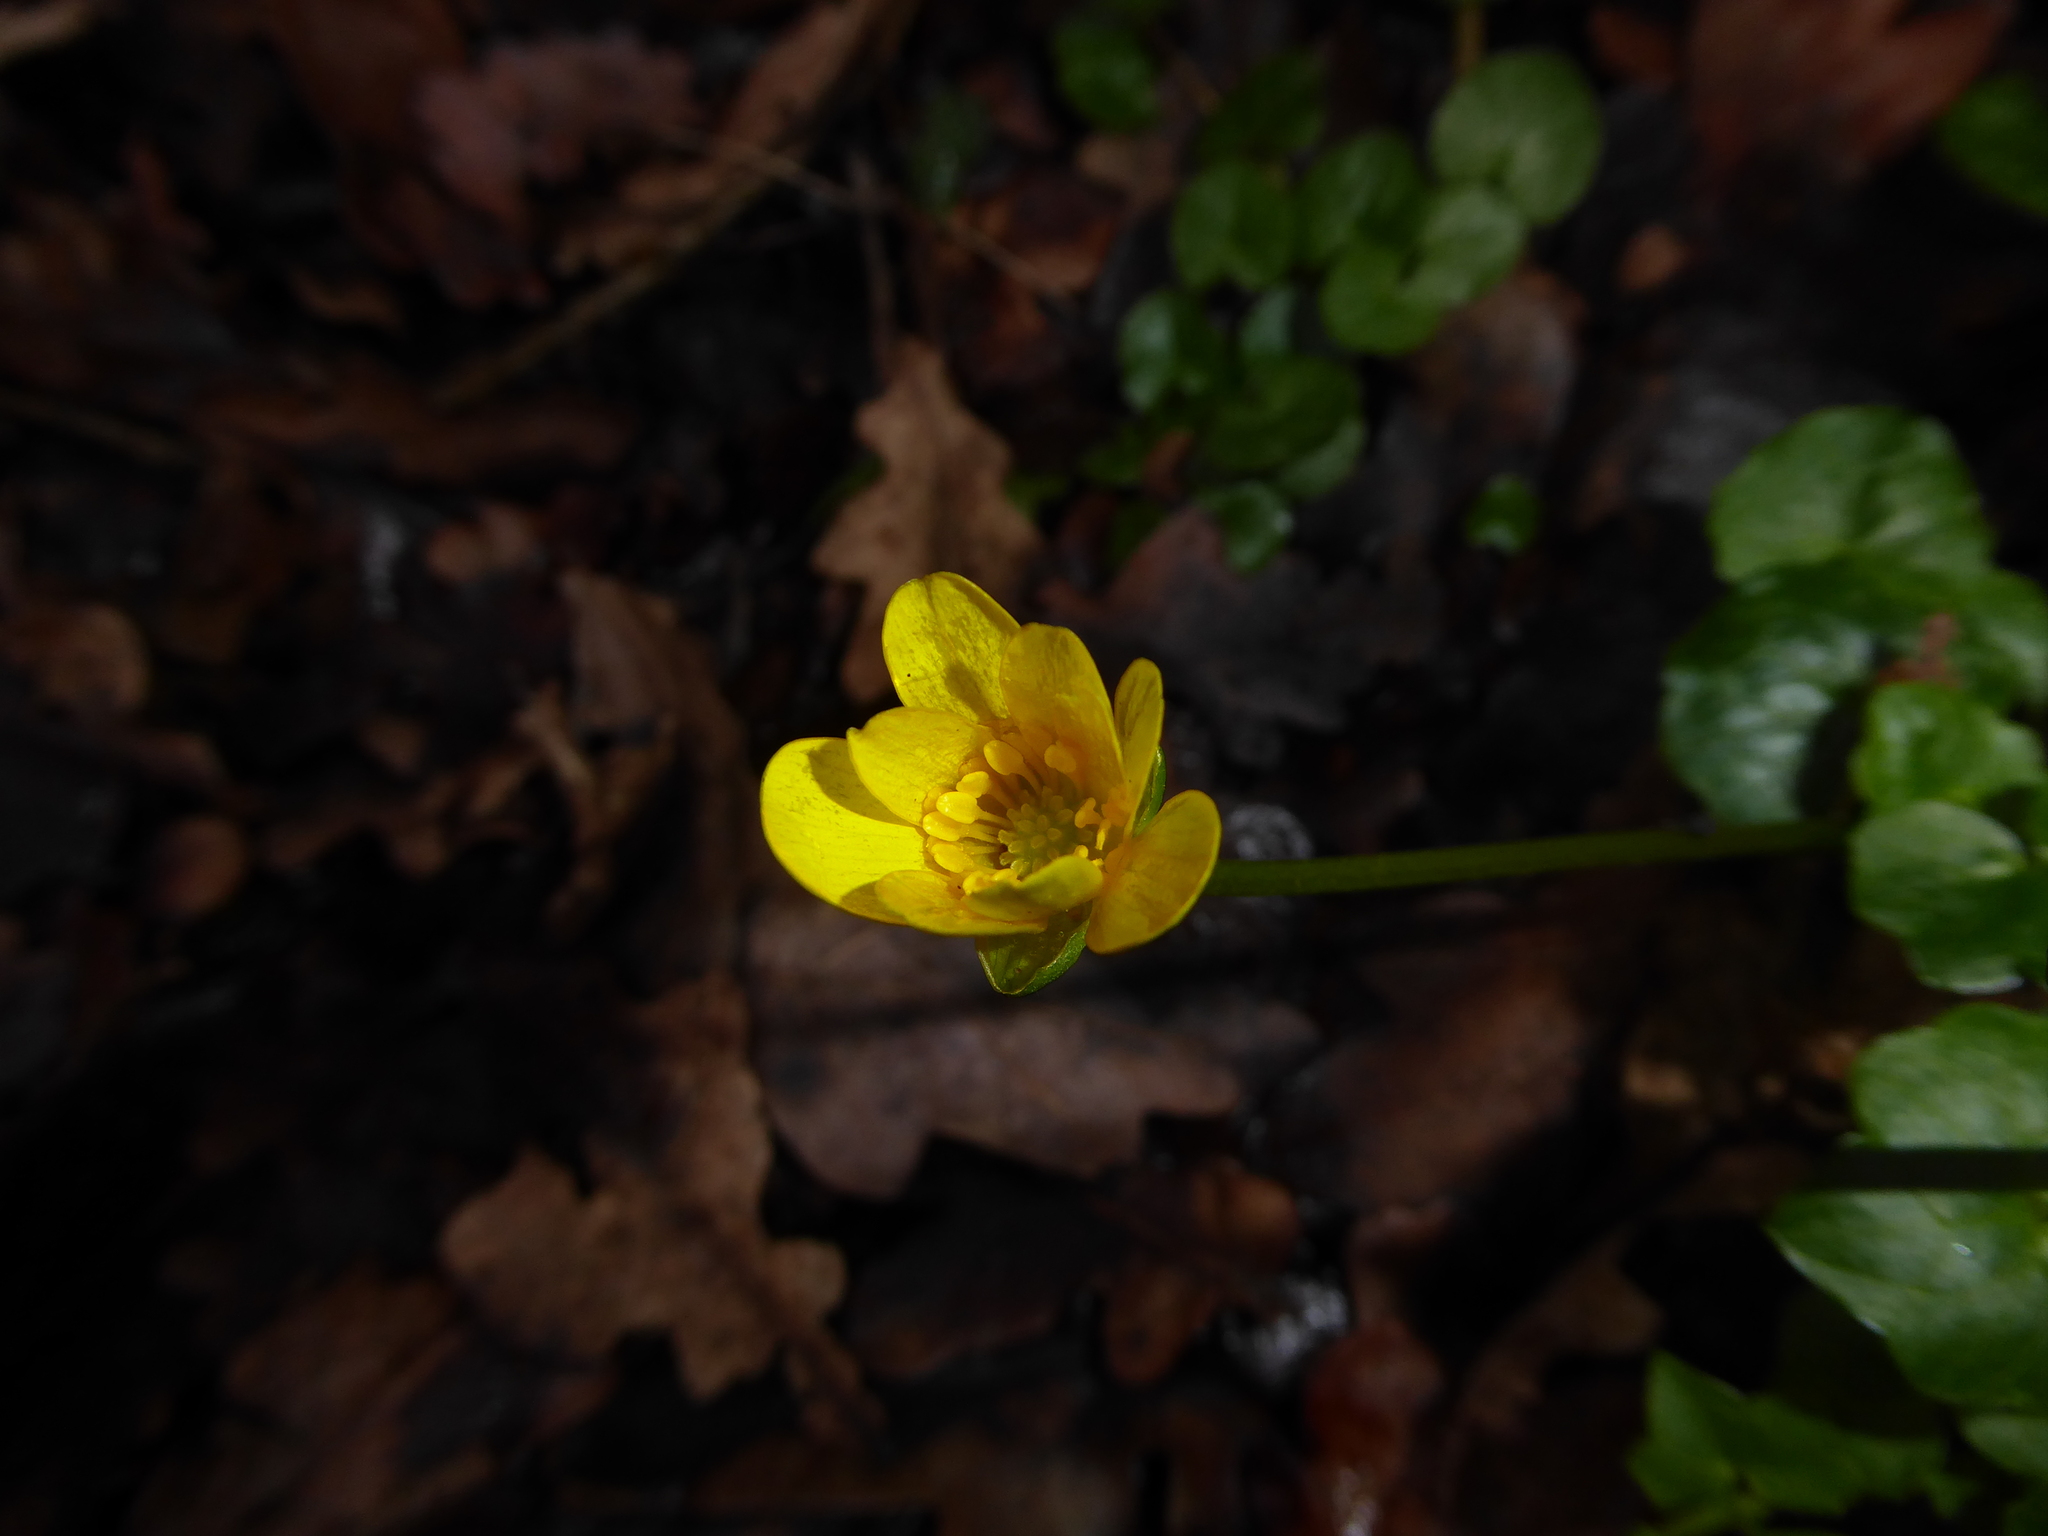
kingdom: Plantae
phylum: Tracheophyta
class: Magnoliopsida
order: Ranunculales
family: Ranunculaceae
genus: Ficaria
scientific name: Ficaria verna
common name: Lesser celandine
